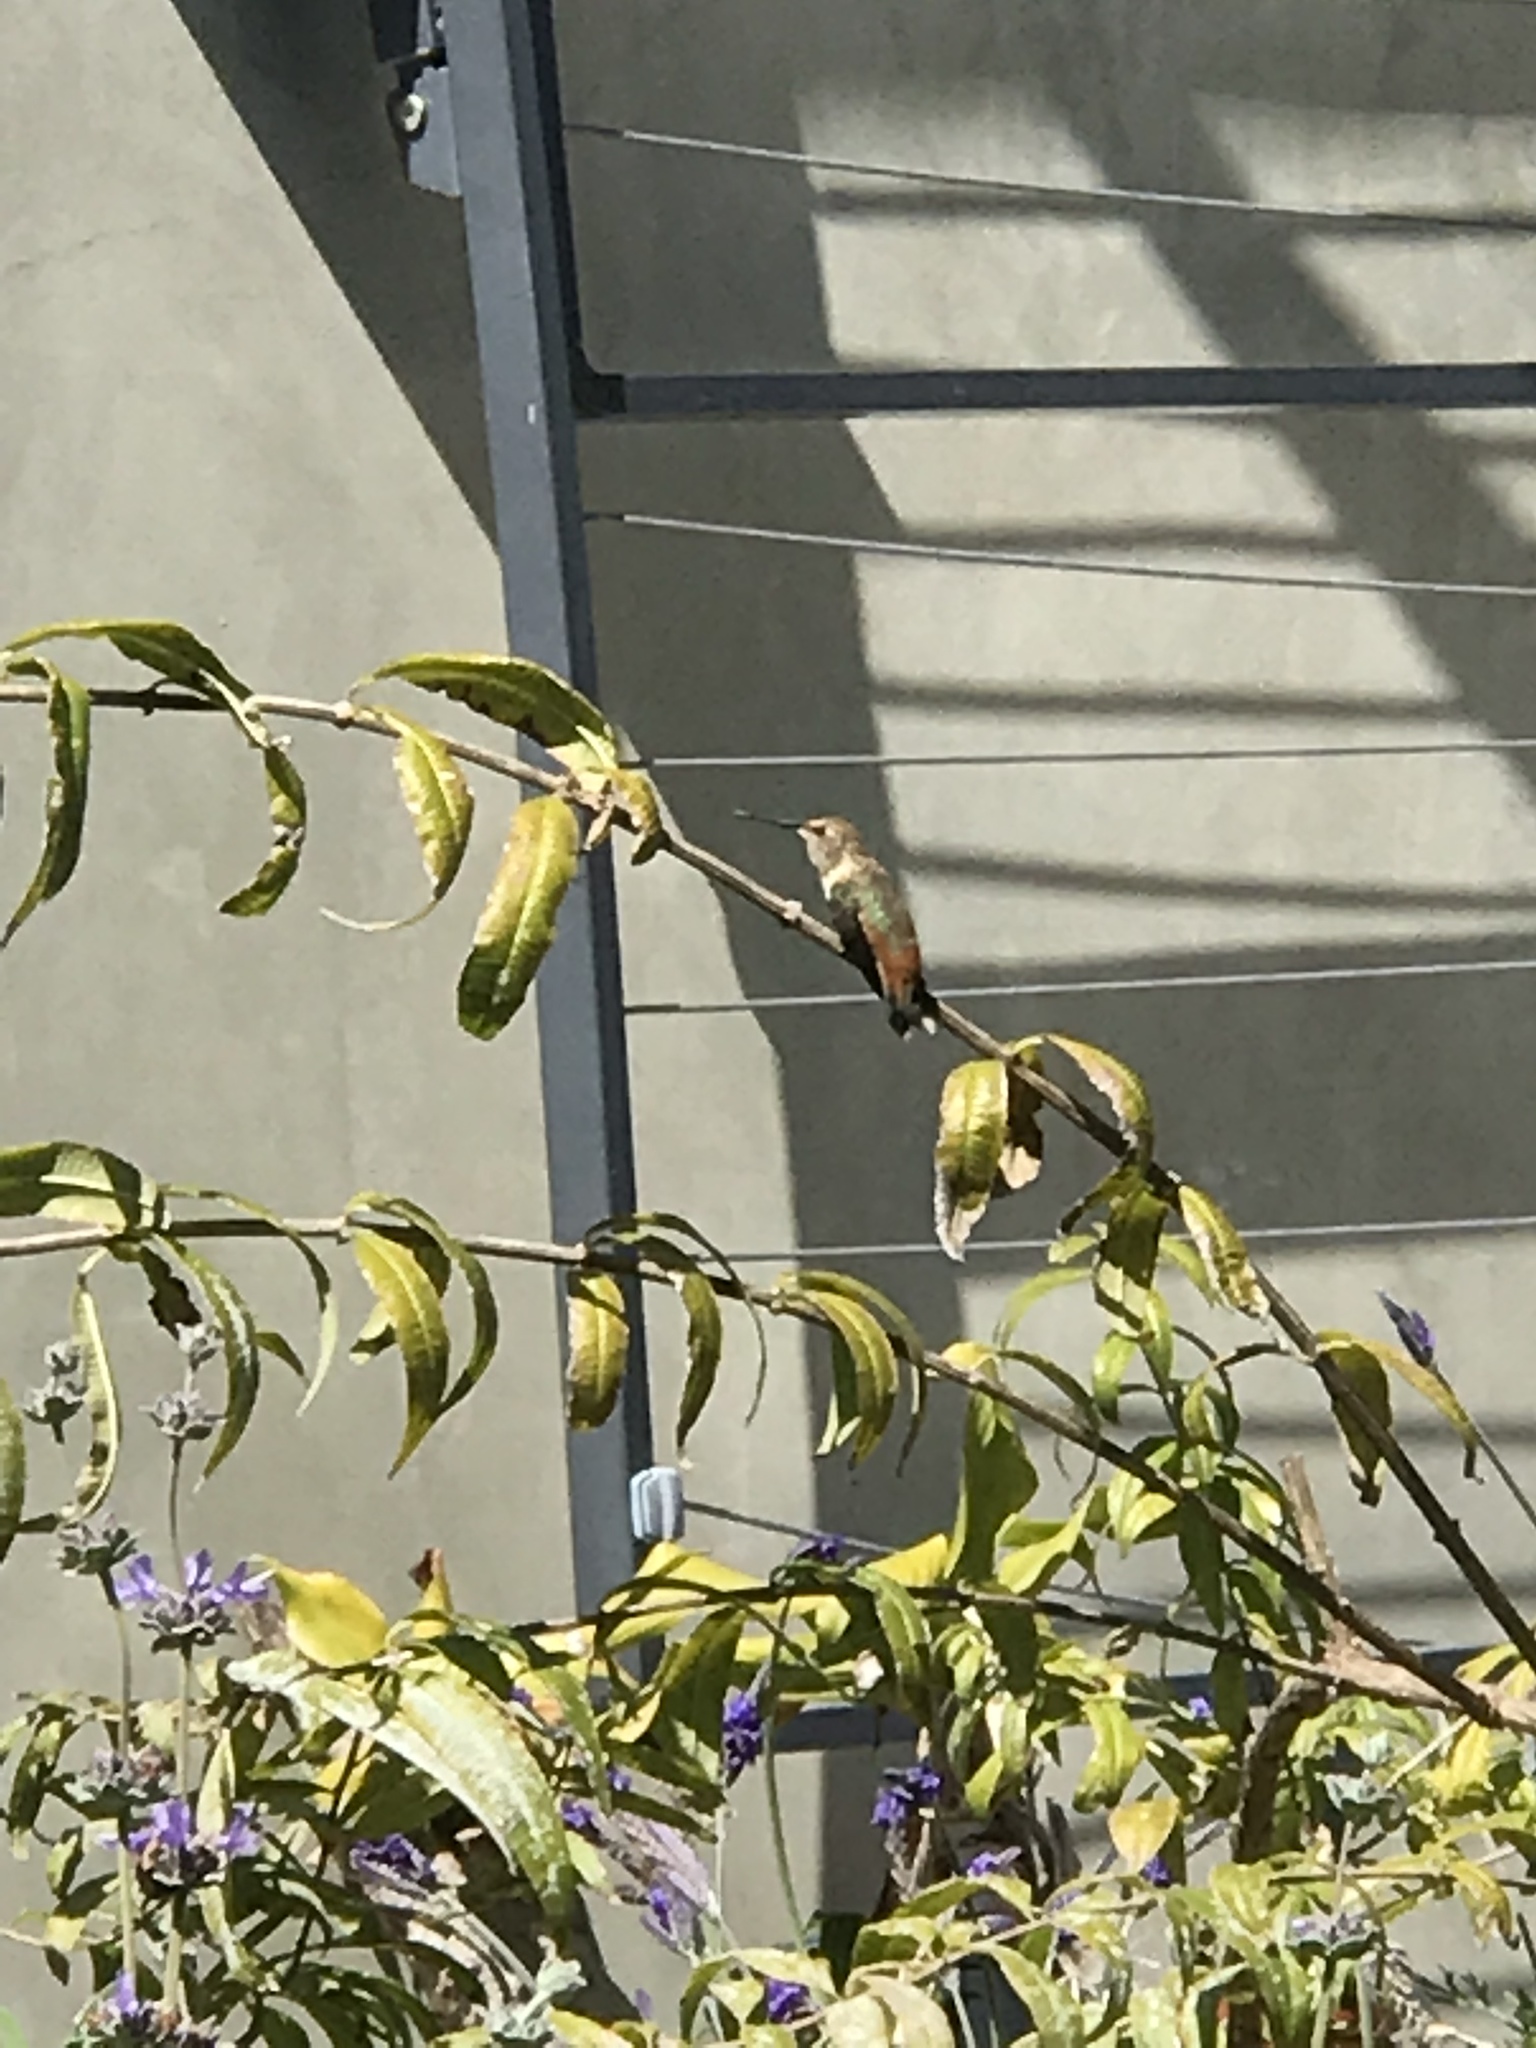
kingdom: Animalia
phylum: Chordata
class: Aves
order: Apodiformes
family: Trochilidae
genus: Selasphorus
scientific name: Selasphorus
